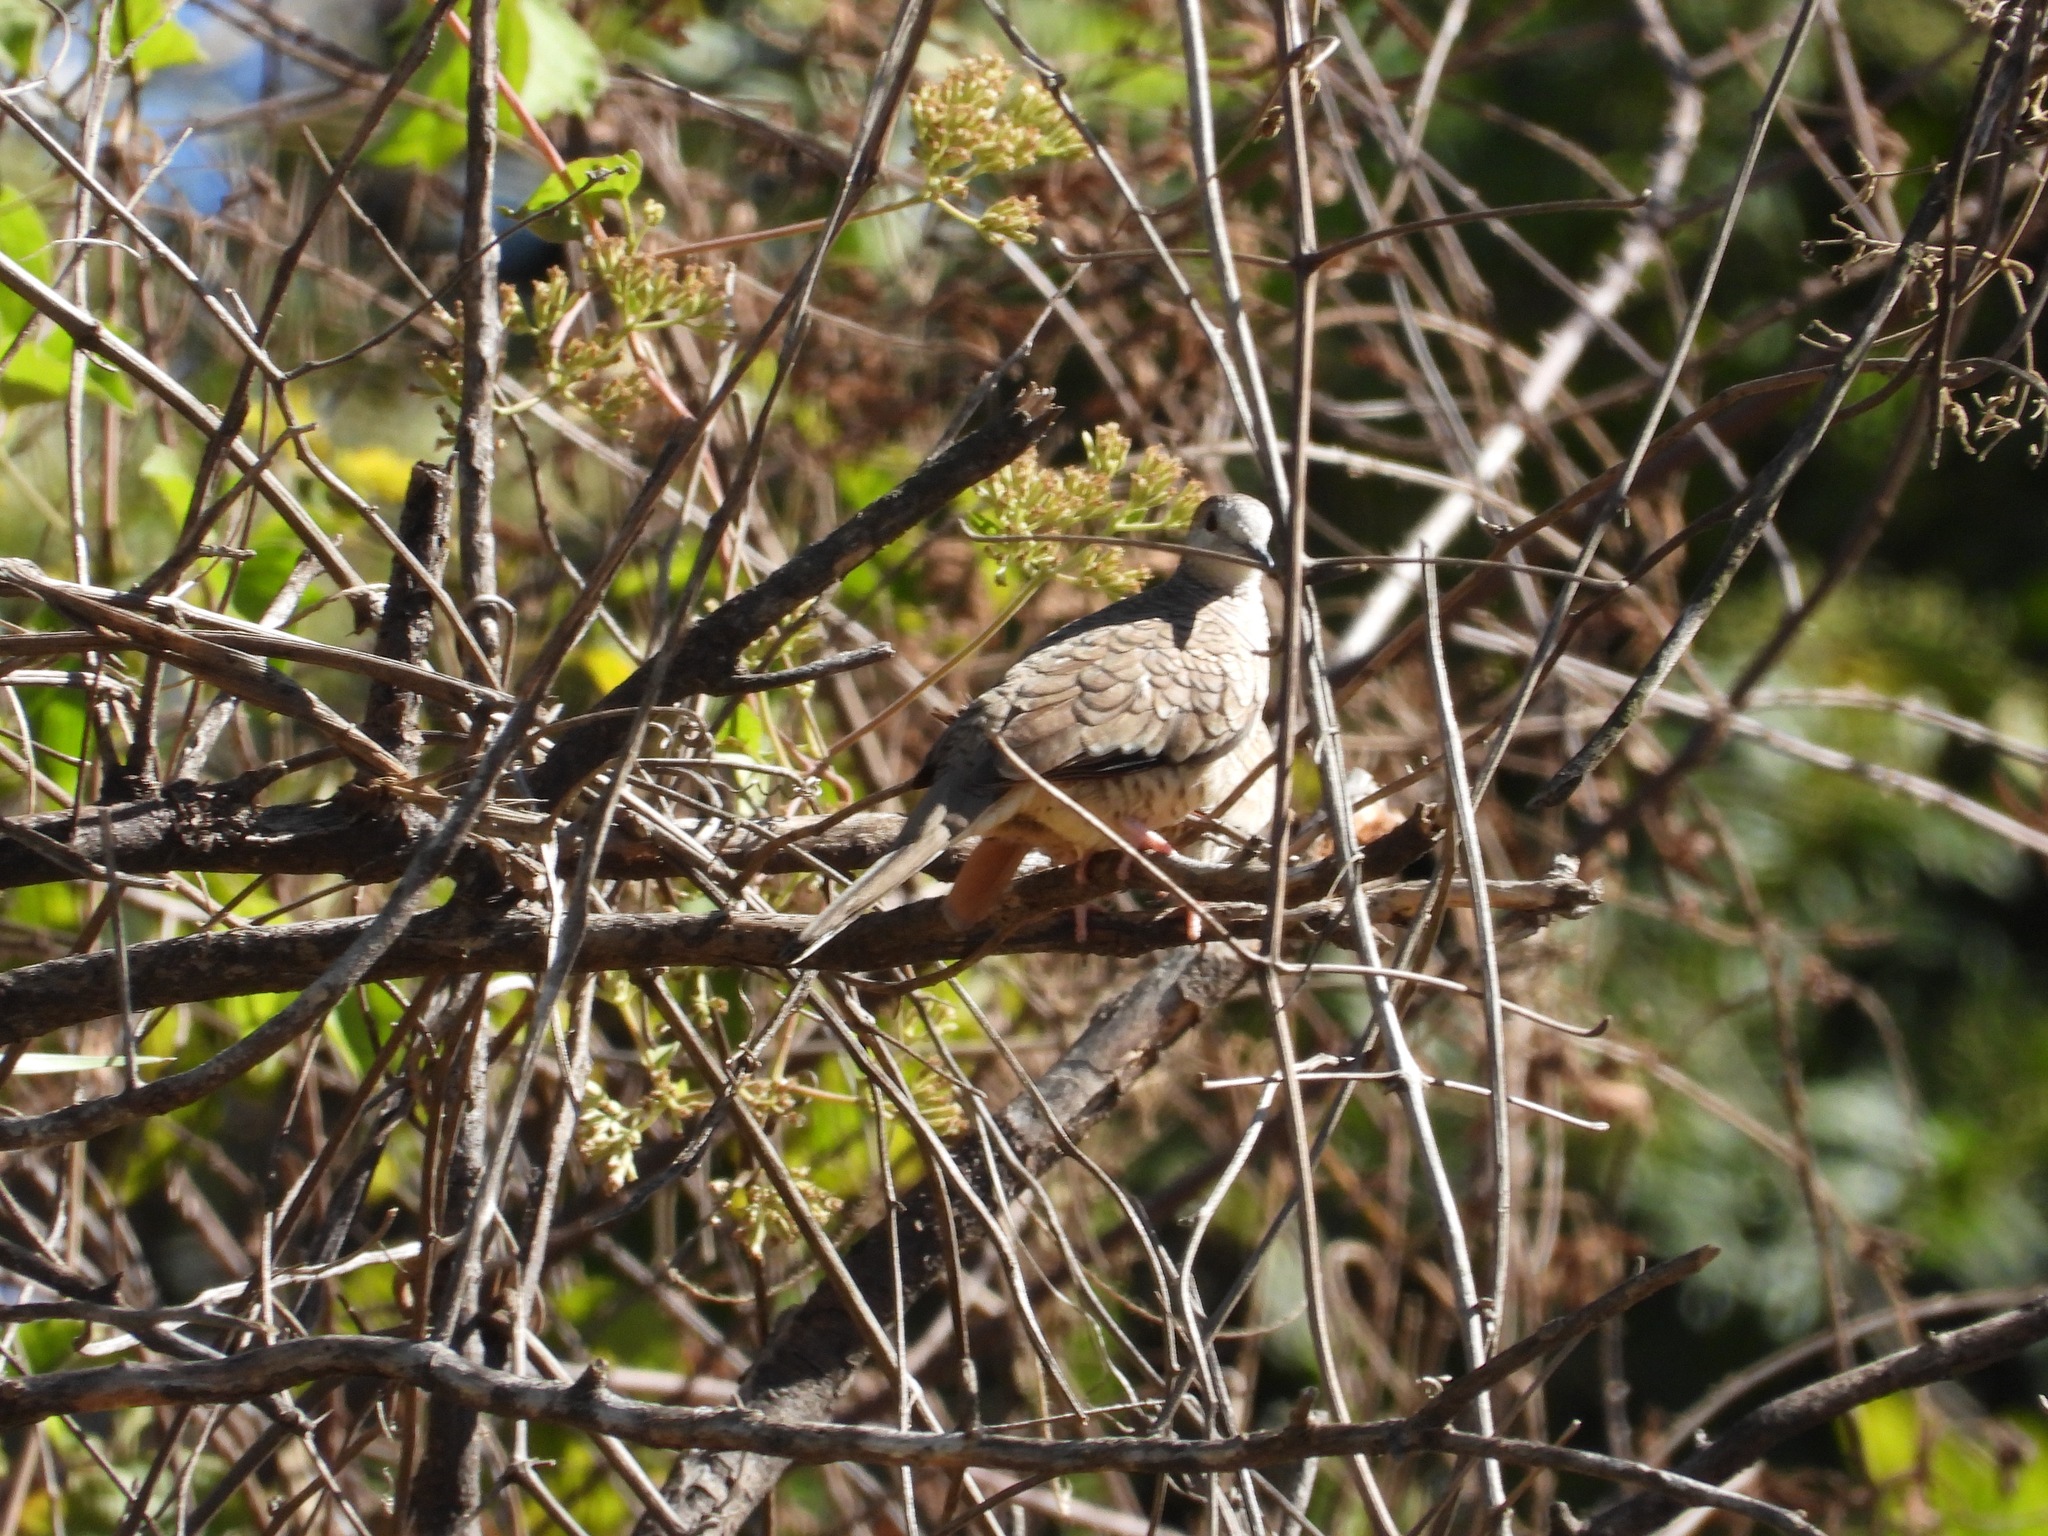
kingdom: Animalia
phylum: Chordata
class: Aves
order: Columbiformes
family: Columbidae
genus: Columbina
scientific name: Columbina inca
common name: Inca dove
